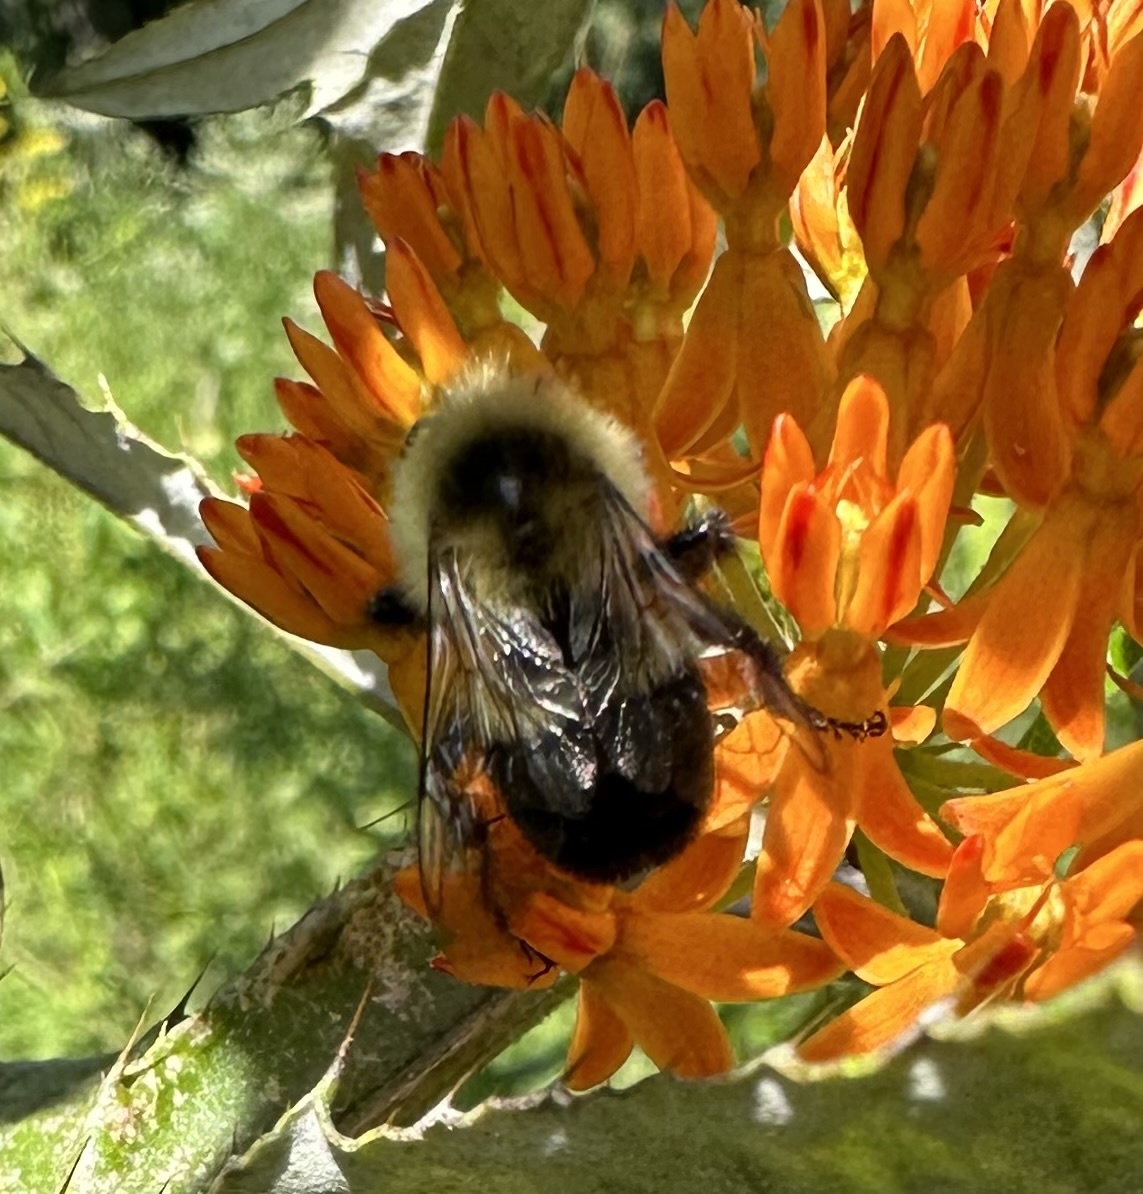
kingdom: Animalia
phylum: Arthropoda
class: Insecta
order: Hymenoptera
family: Apidae
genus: Bombus
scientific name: Bombus impatiens
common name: Common eastern bumble bee
